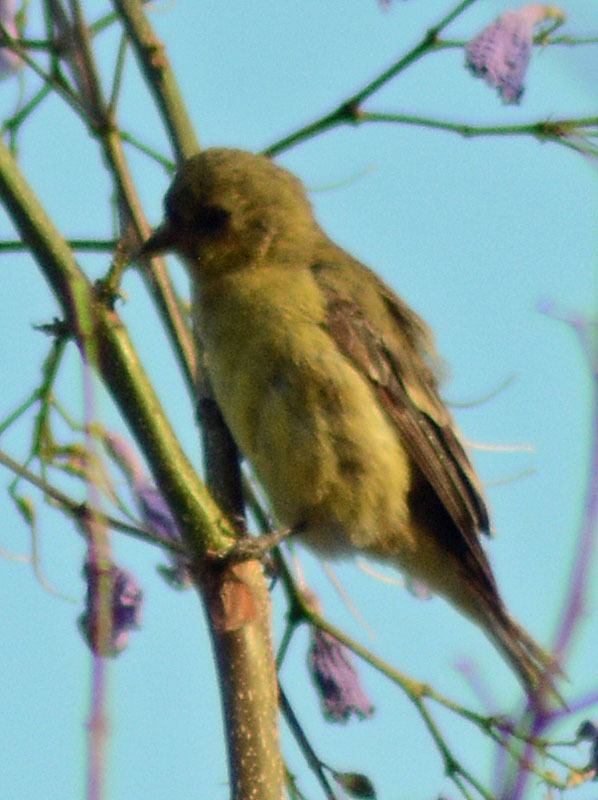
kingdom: Animalia
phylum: Chordata
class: Aves
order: Passeriformes
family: Fringillidae
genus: Spinus
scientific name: Spinus psaltria
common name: Lesser goldfinch
